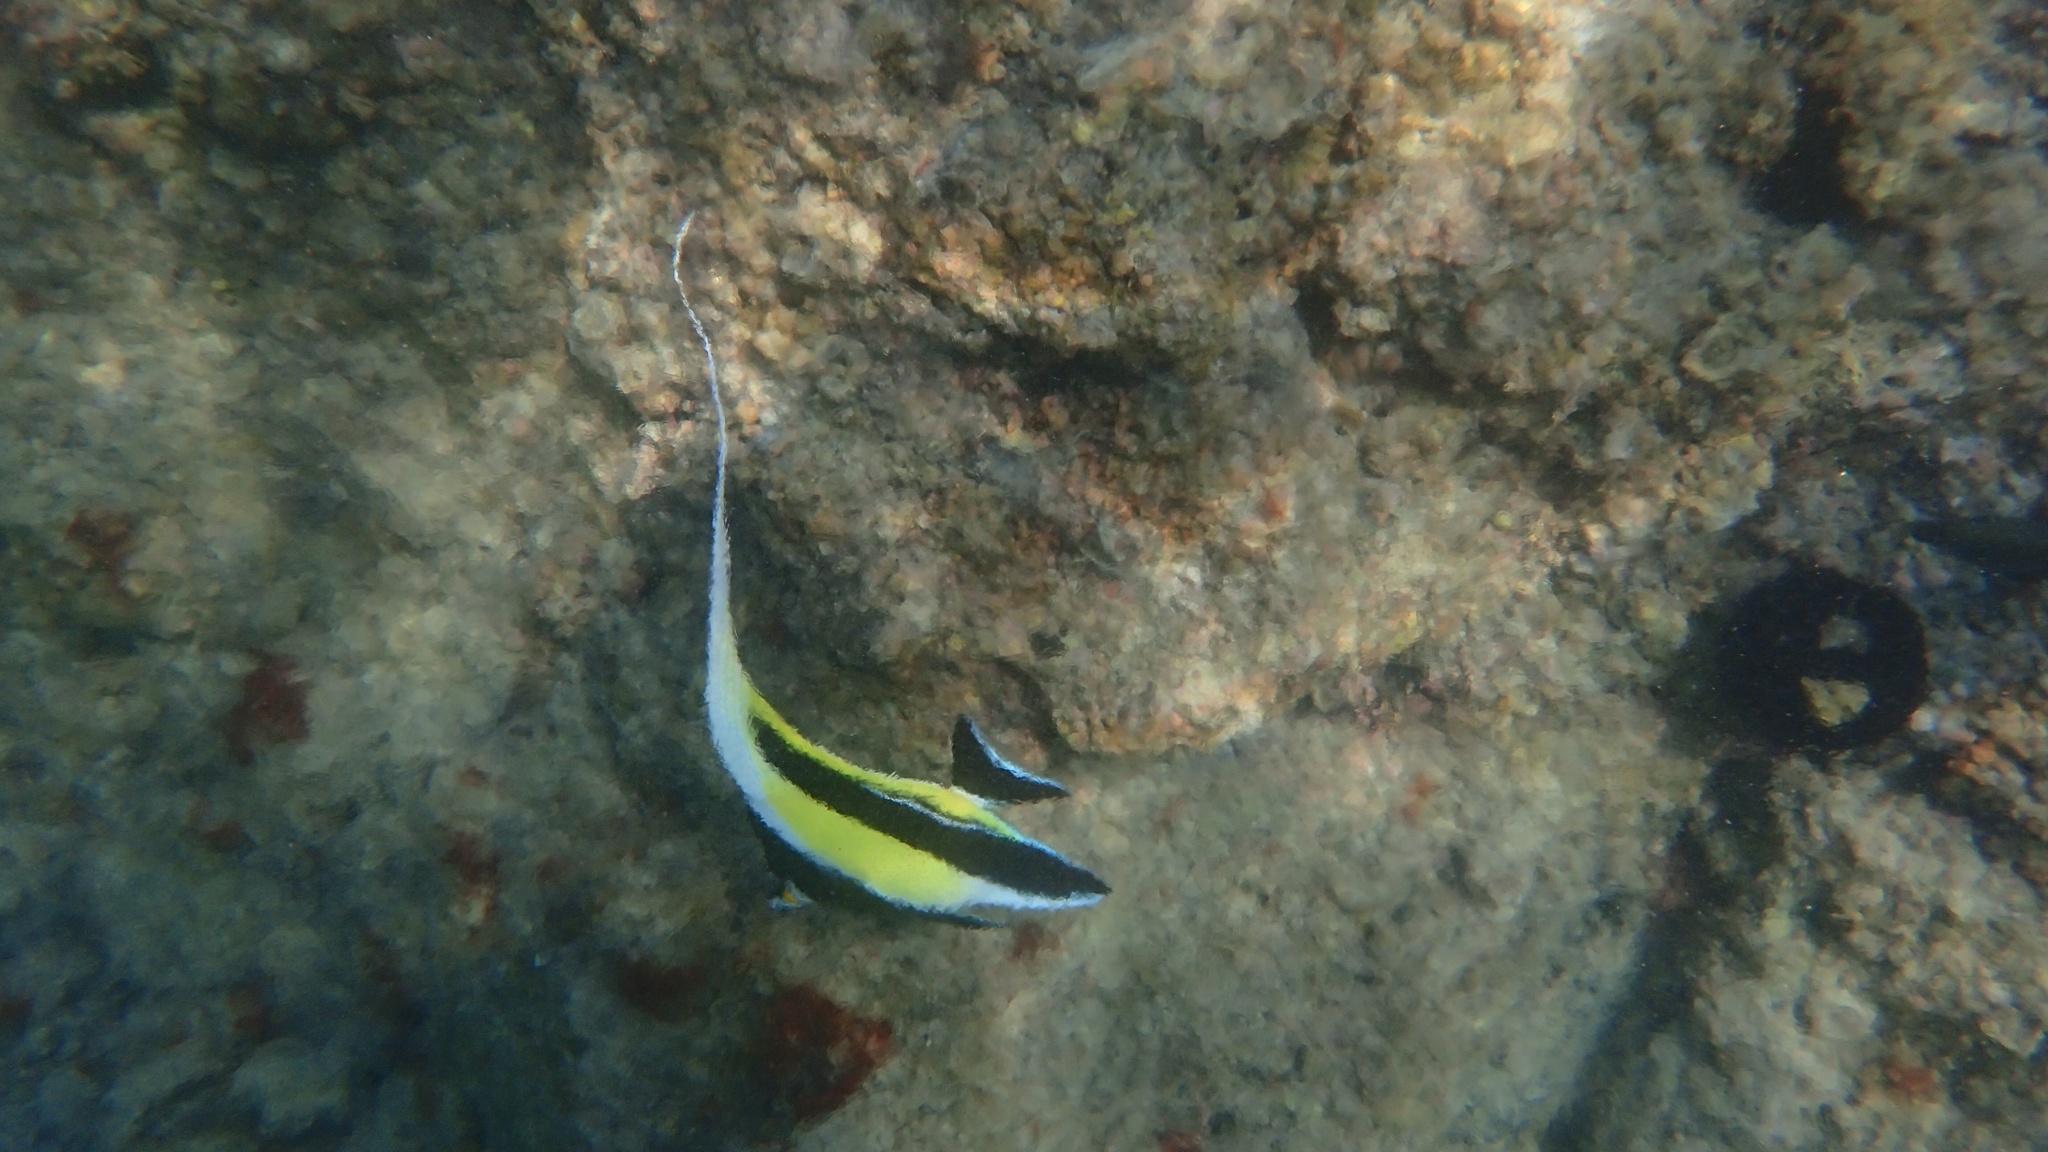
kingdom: Animalia
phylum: Chordata
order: Perciformes
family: Zanclidae
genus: Zanclus
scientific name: Zanclus cornutus
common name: Moorish idol
